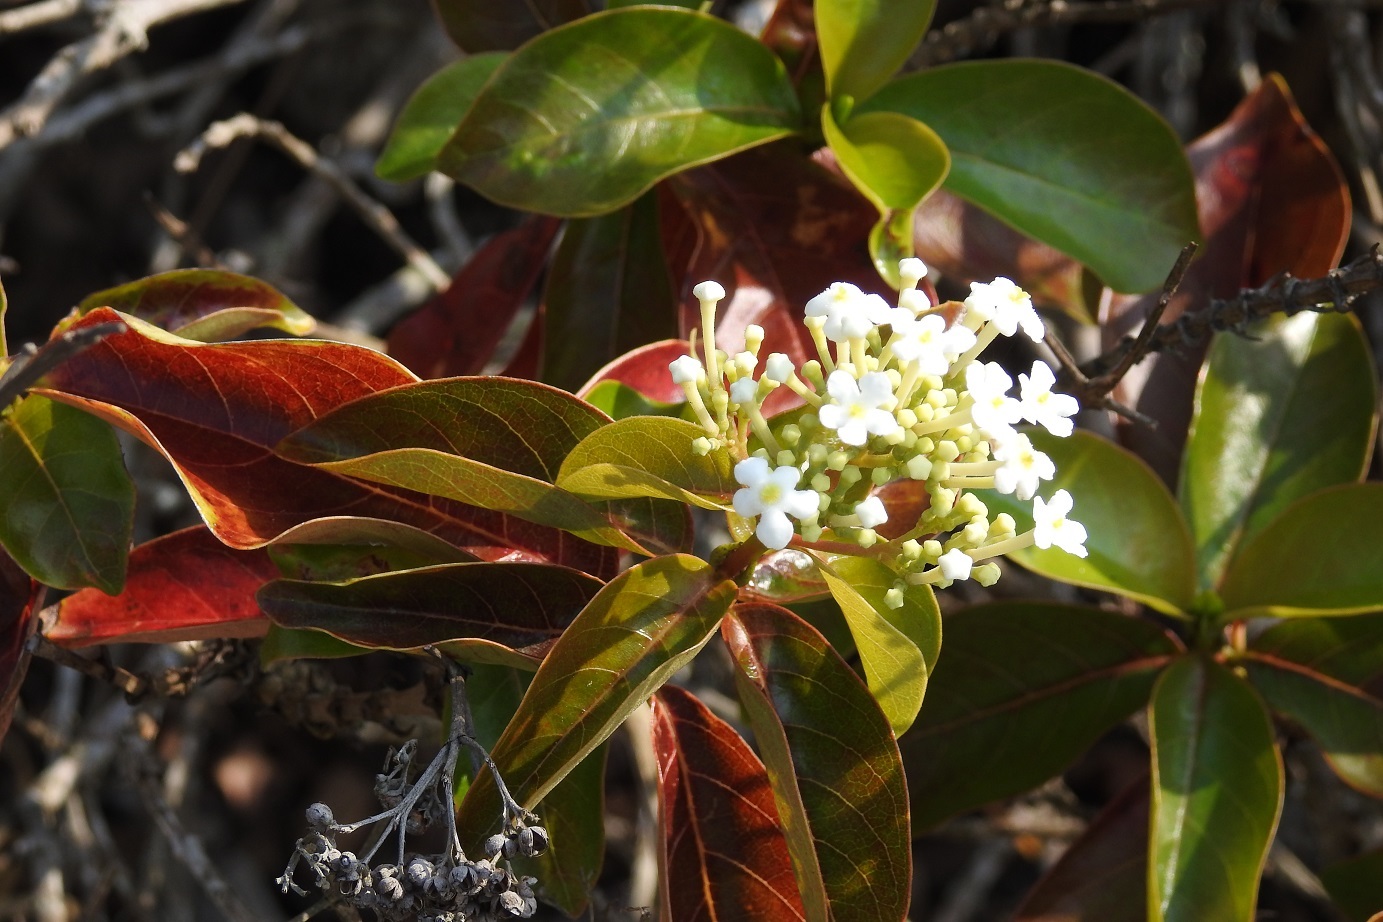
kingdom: Plantae
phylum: Tracheophyta
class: Magnoliopsida
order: Gentianales
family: Rubiaceae
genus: Rogiera
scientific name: Rogiera stenosiphon
